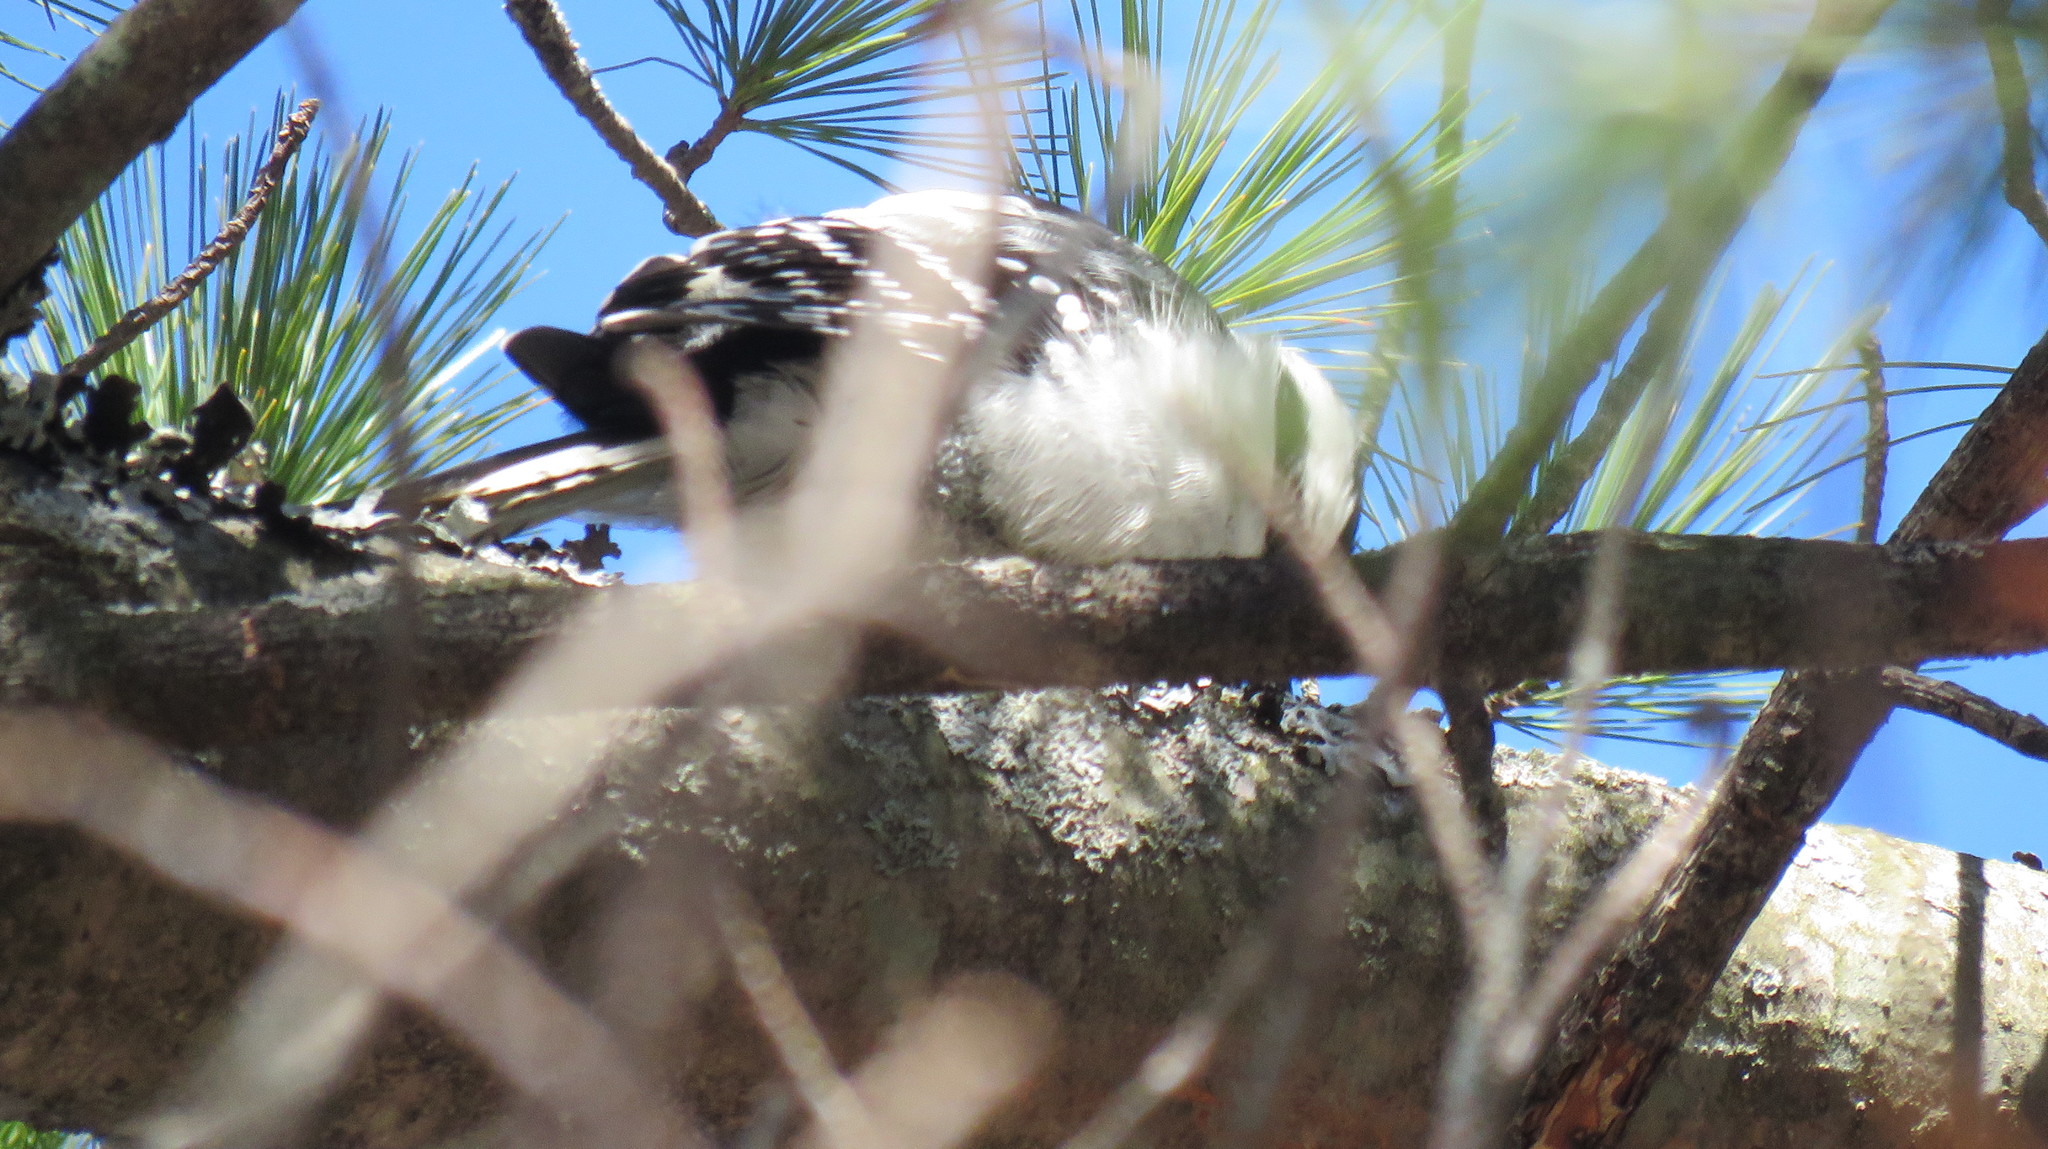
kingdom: Animalia
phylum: Chordata
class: Aves
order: Piciformes
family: Picidae
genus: Dryobates
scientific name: Dryobates pubescens
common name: Downy woodpecker
